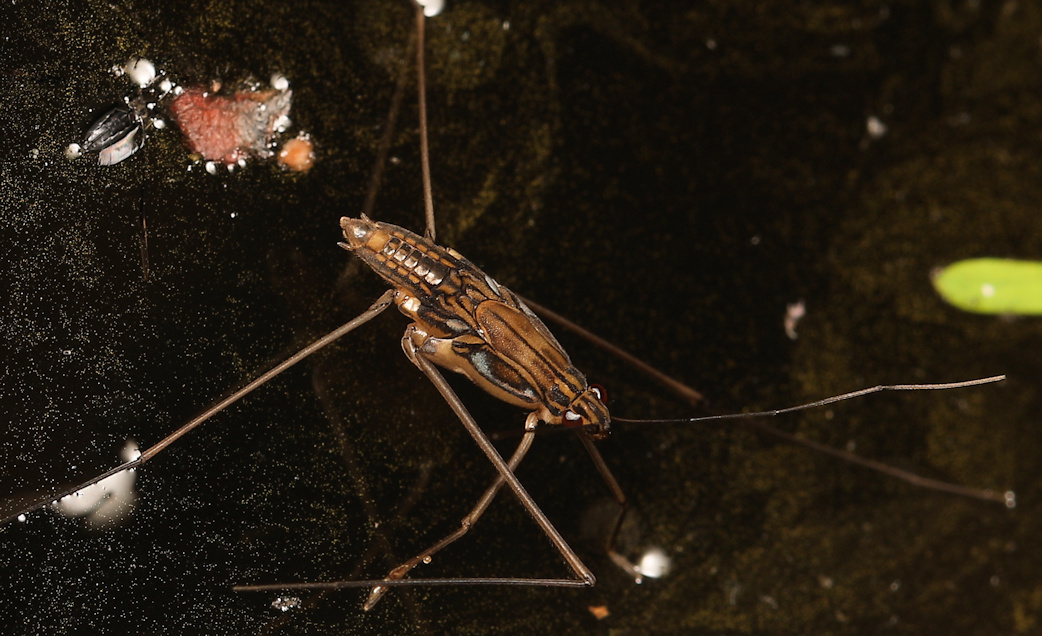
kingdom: Animalia
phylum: Arthropoda
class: Insecta
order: Hemiptera
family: Gerridae
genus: Tenagogonus
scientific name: Tenagogonus zambezinus
